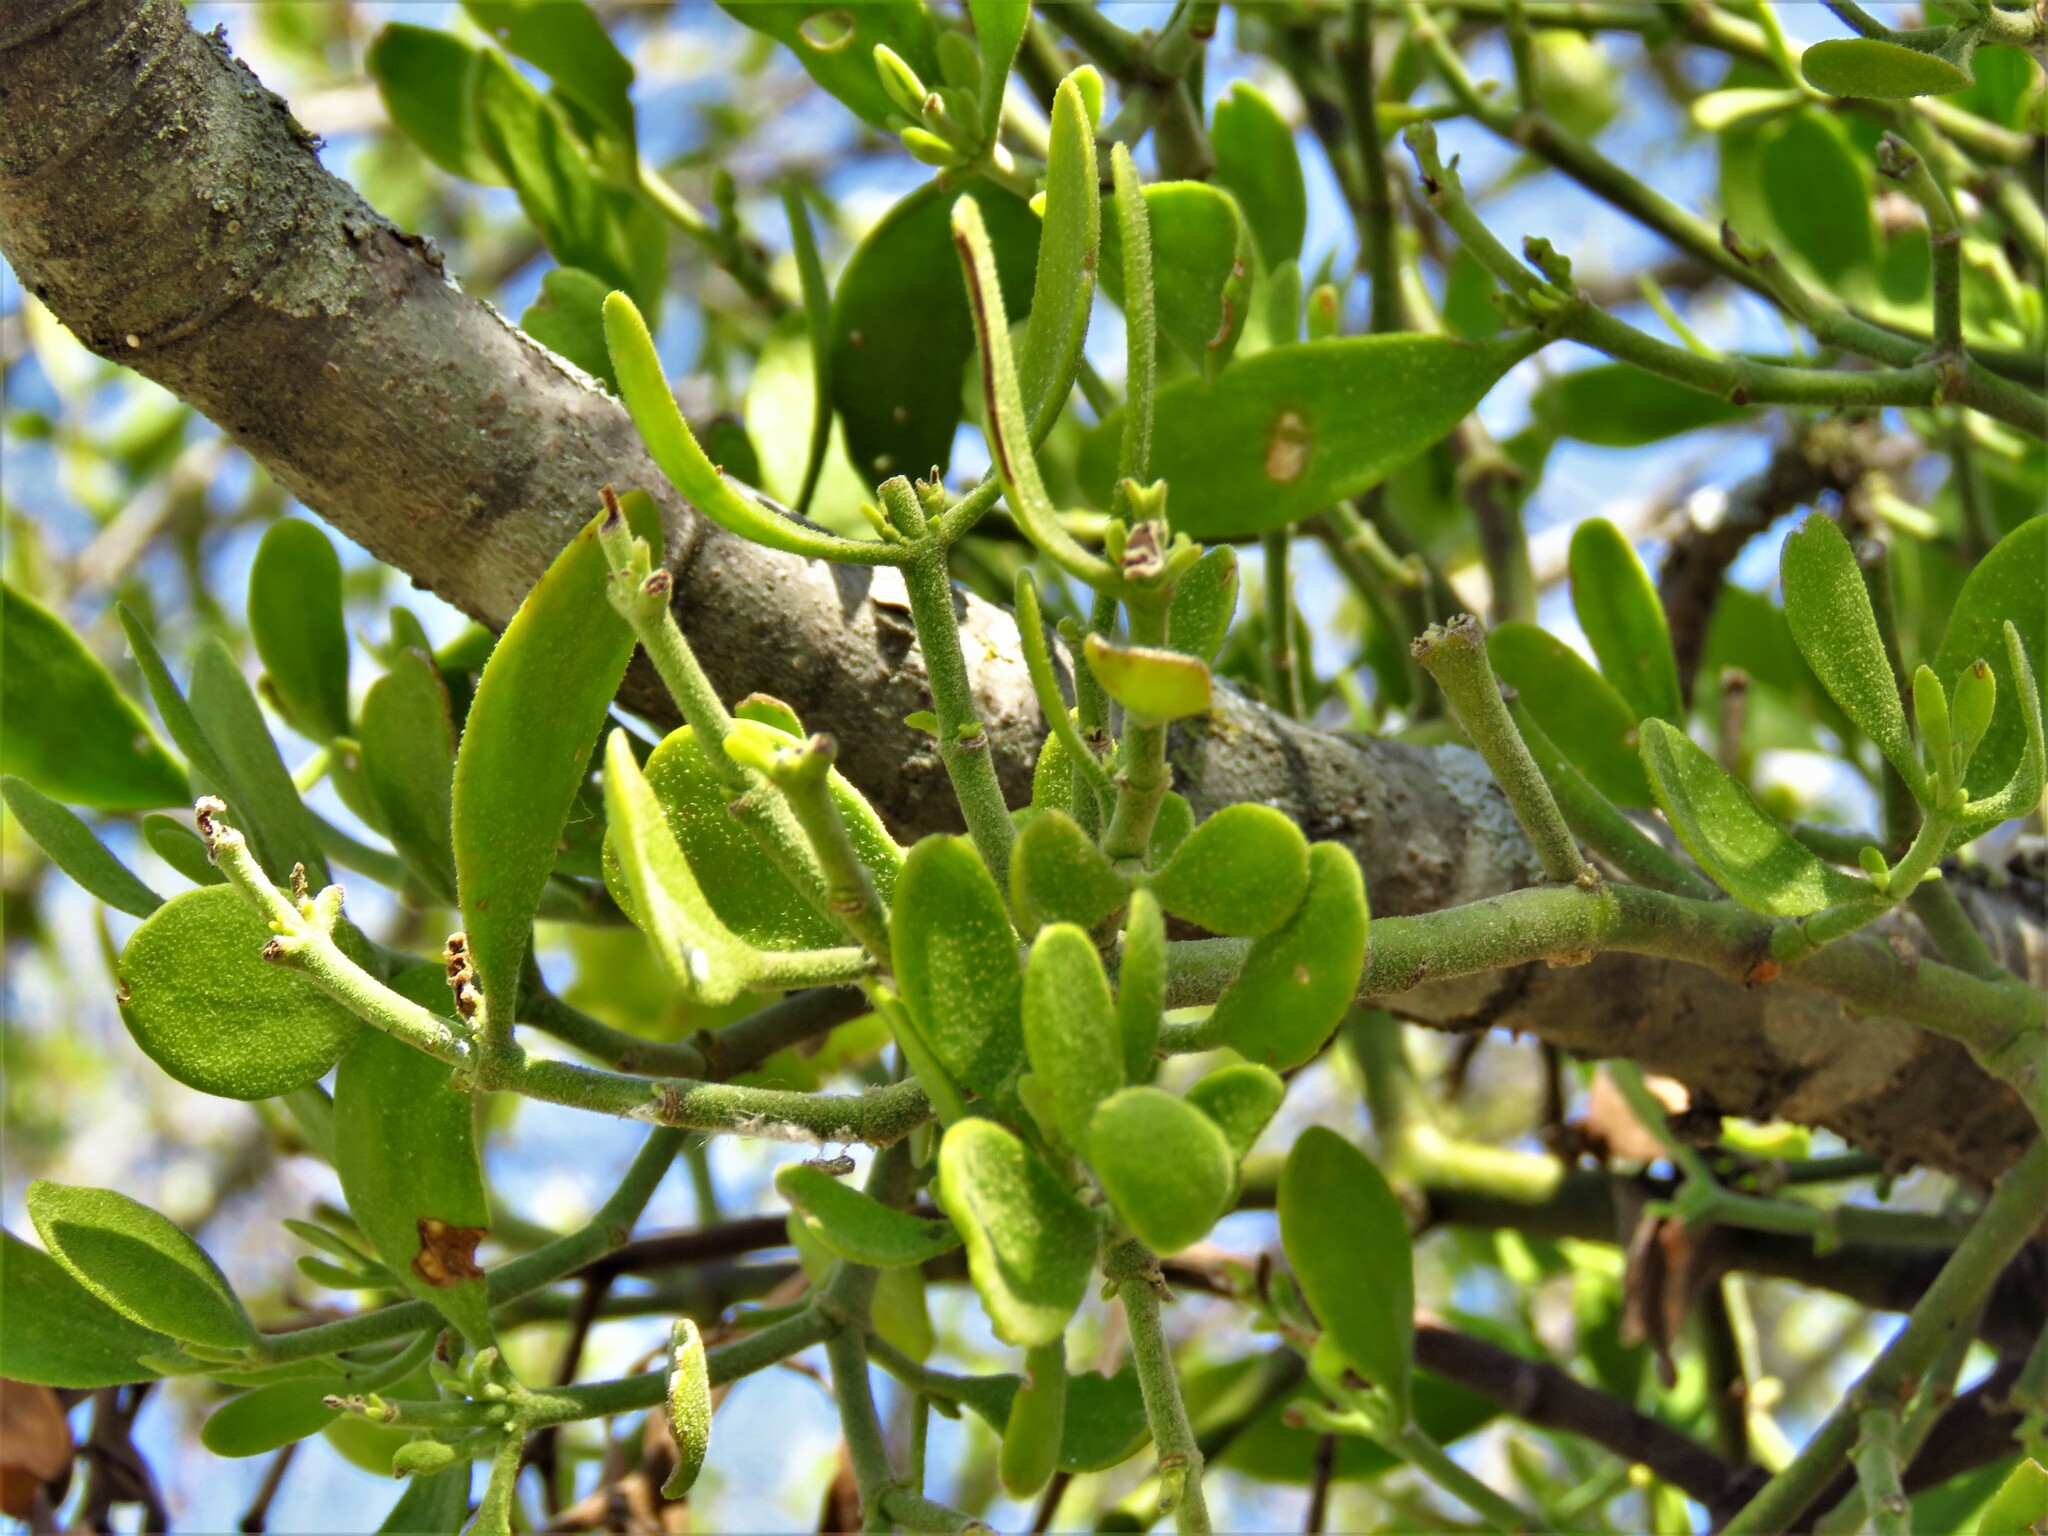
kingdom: Plantae
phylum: Tracheophyta
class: Magnoliopsida
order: Santalales
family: Viscaceae
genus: Phoradendron
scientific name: Phoradendron leucarpum
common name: Pacific mistletoe
